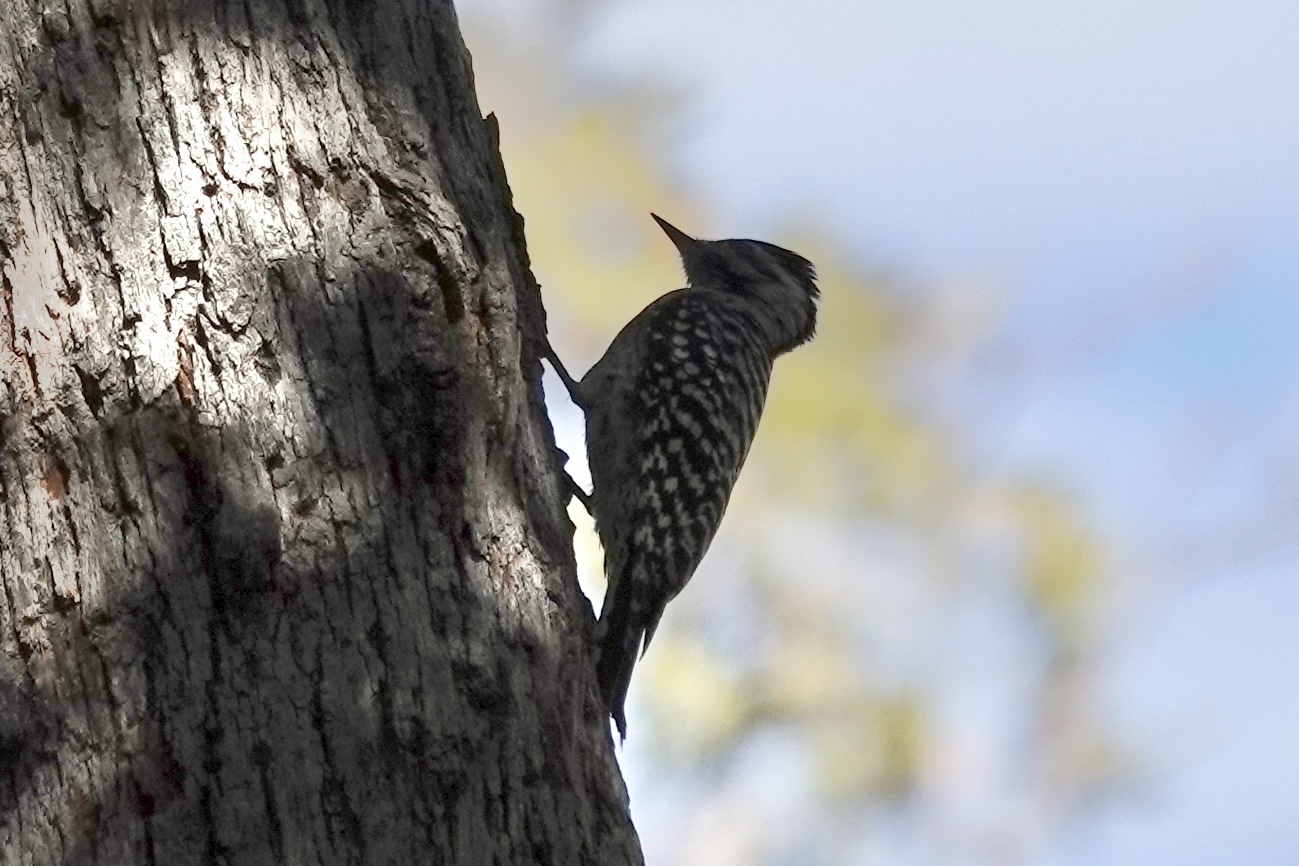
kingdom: Animalia
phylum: Chordata
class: Aves
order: Piciformes
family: Picidae
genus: Dryobates
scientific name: Dryobates scalaris
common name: Ladder-backed woodpecker
